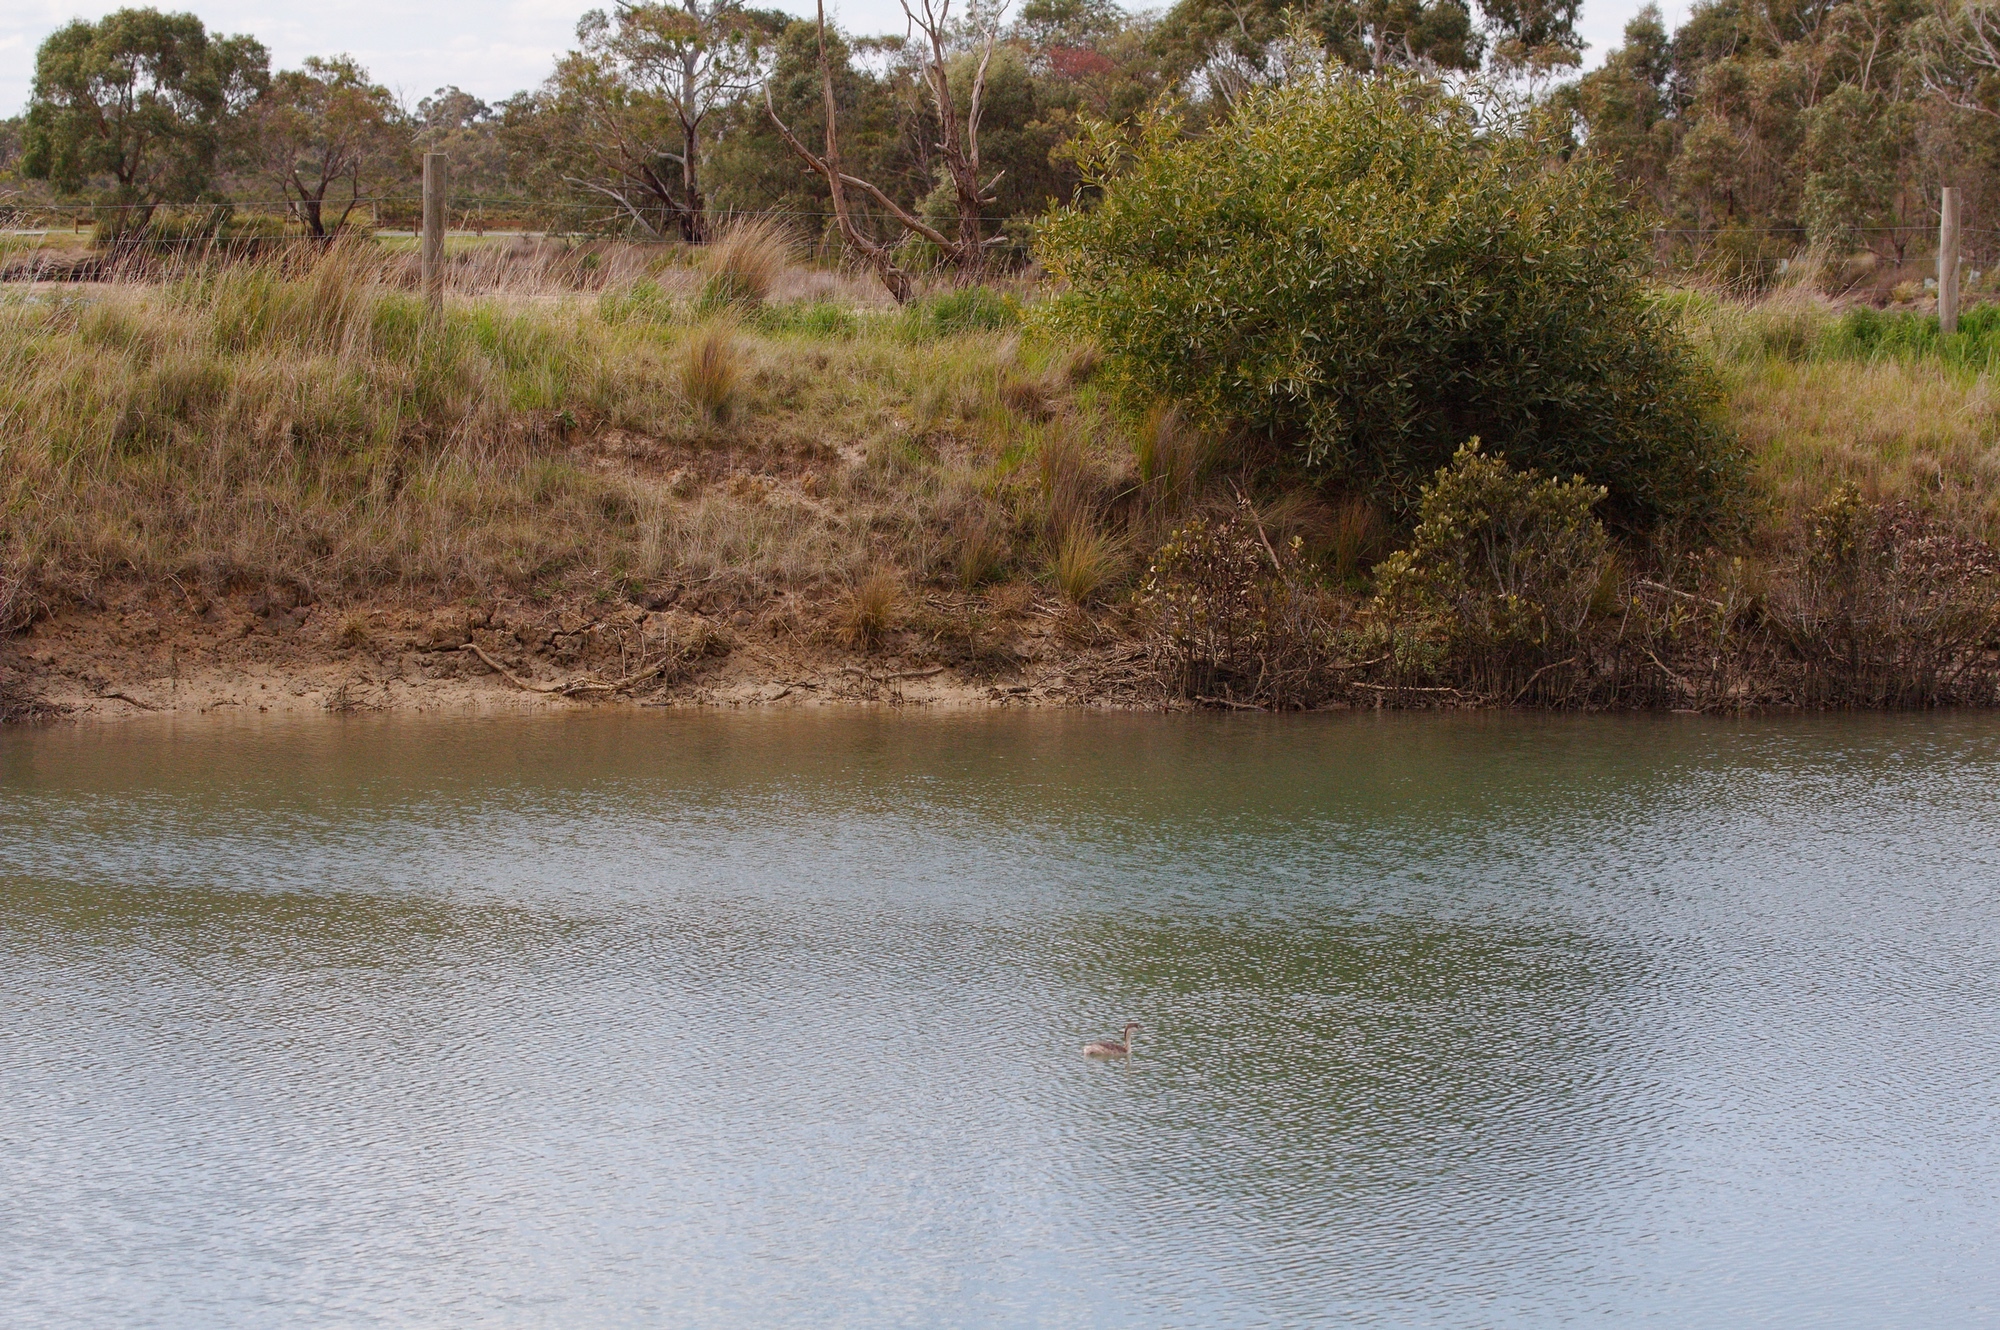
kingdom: Animalia
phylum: Chordata
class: Aves
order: Podicipediformes
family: Podicipedidae
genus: Poliocephalus
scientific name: Poliocephalus poliocephalus
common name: Hoary-headed grebe
